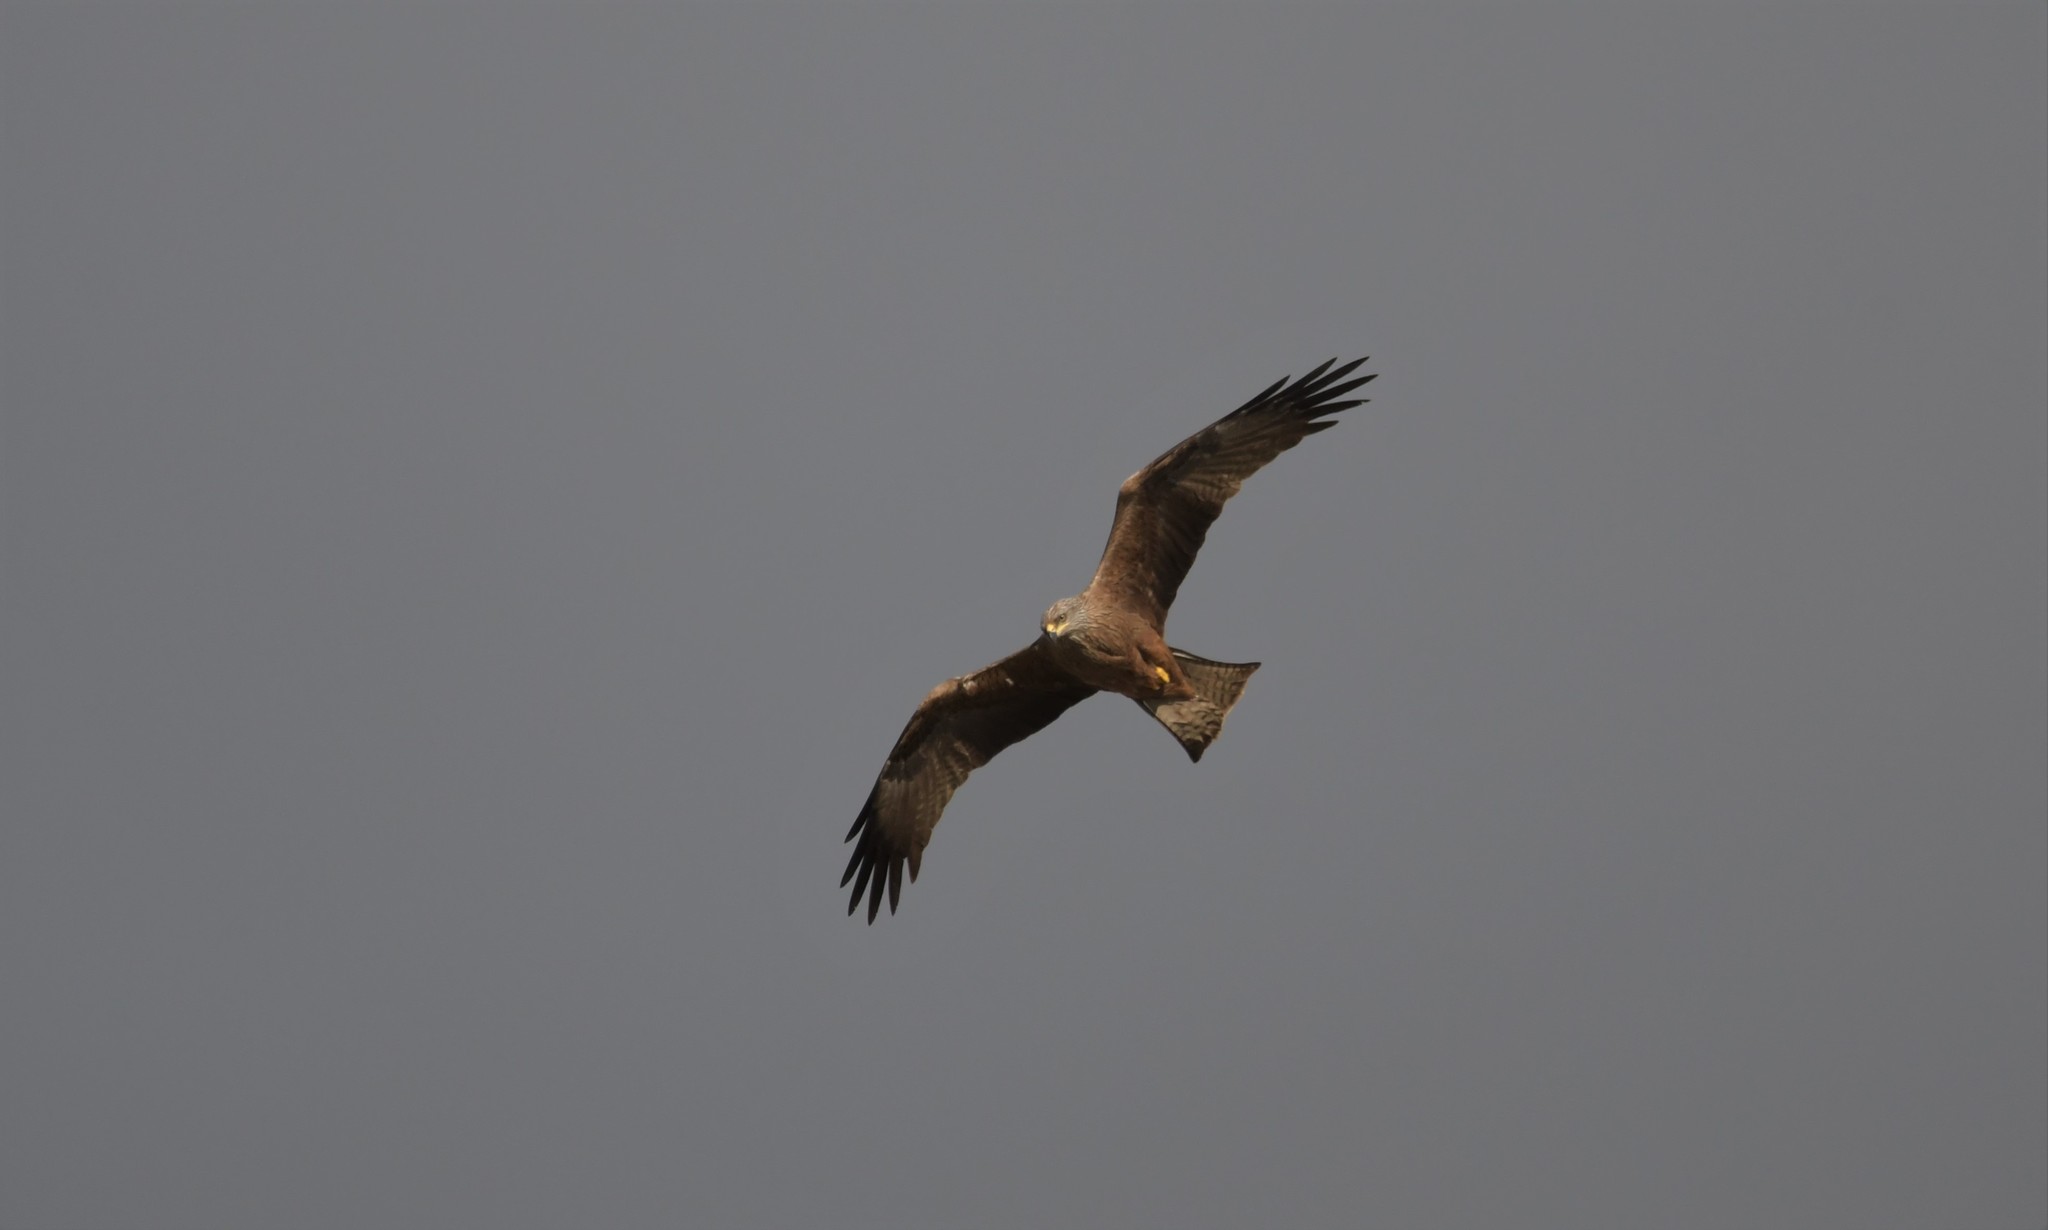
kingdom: Animalia
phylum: Chordata
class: Aves
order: Accipitriformes
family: Accipitridae
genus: Milvus
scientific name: Milvus migrans
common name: Black kite
